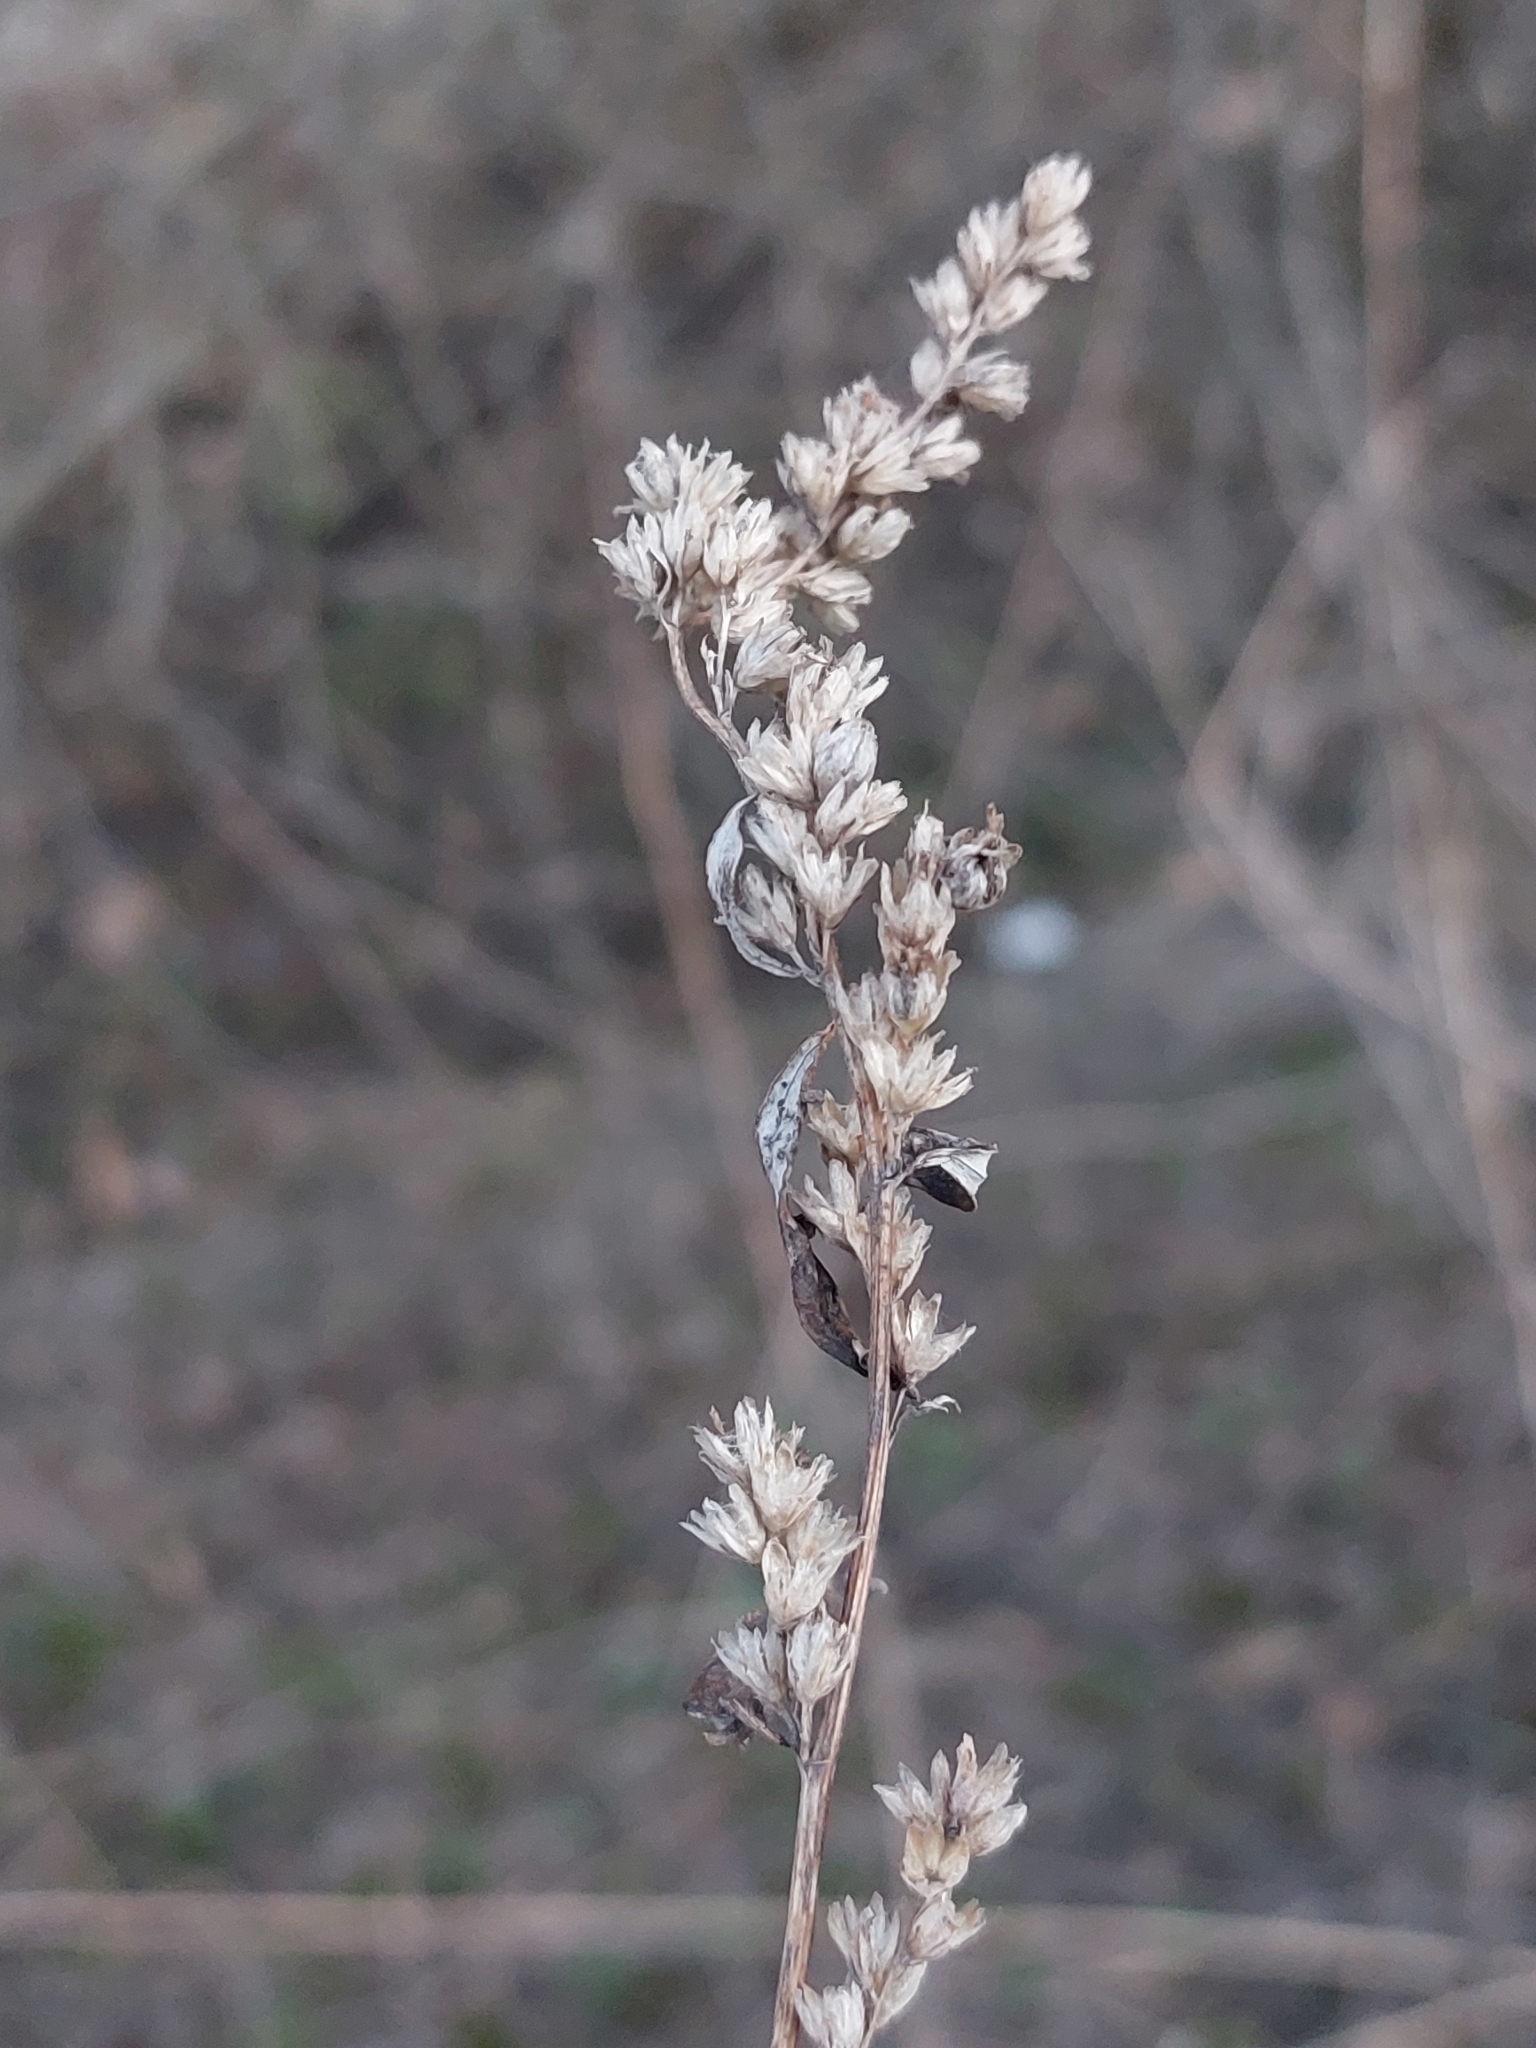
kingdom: Plantae
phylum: Tracheophyta
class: Magnoliopsida
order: Asterales
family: Asteraceae
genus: Artemisia
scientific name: Artemisia vulgaris
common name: Mugwort
